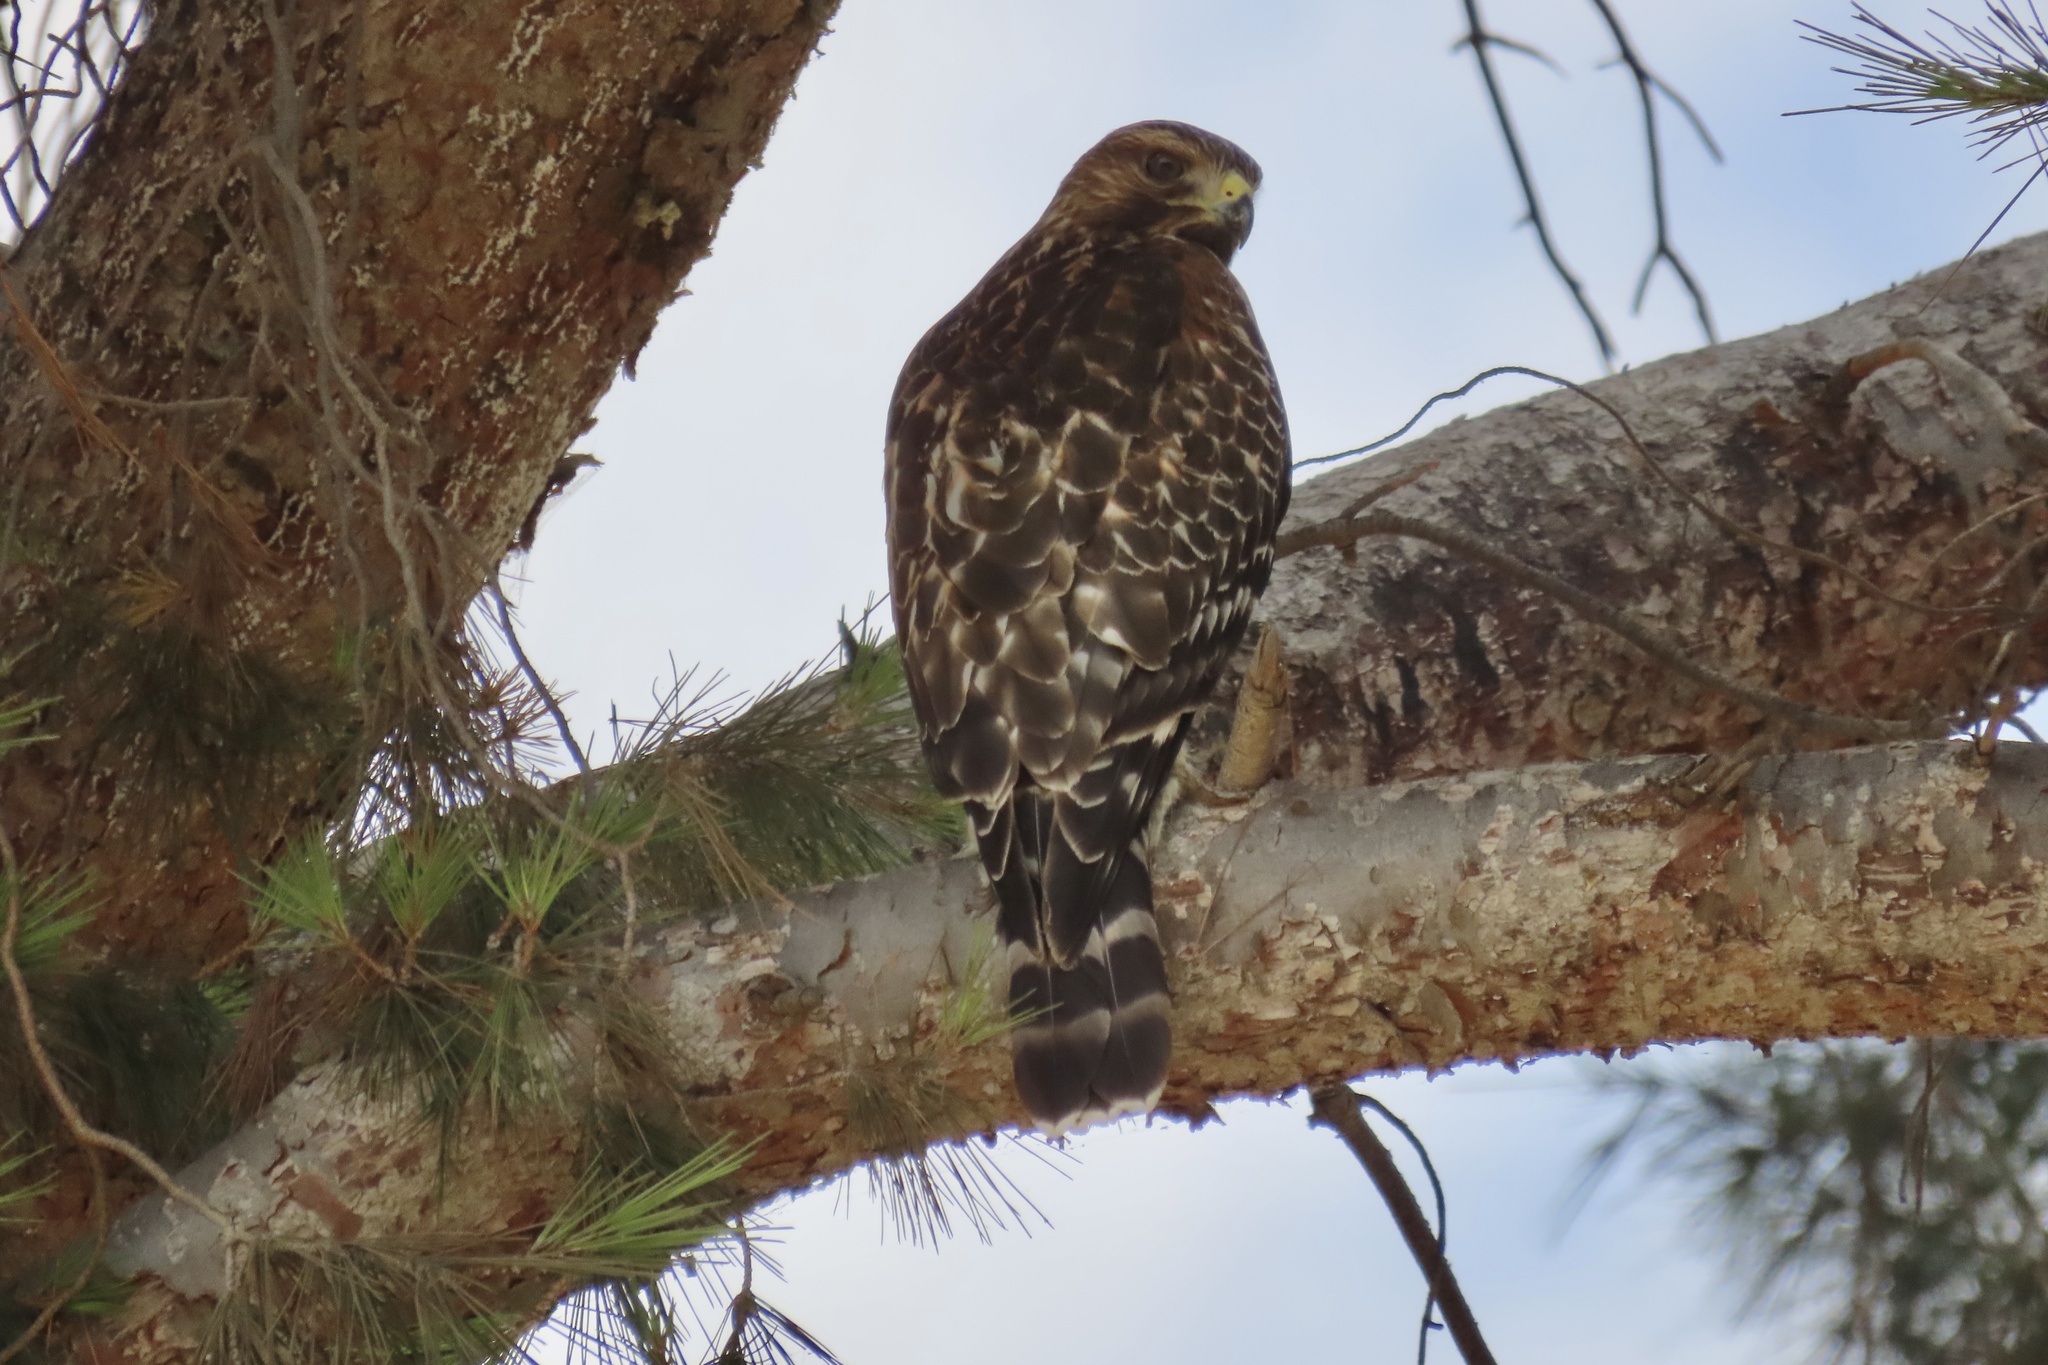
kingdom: Animalia
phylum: Chordata
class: Aves
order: Accipitriformes
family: Accipitridae
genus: Buteo
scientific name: Buteo lineatus
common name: Red-shouldered hawk
